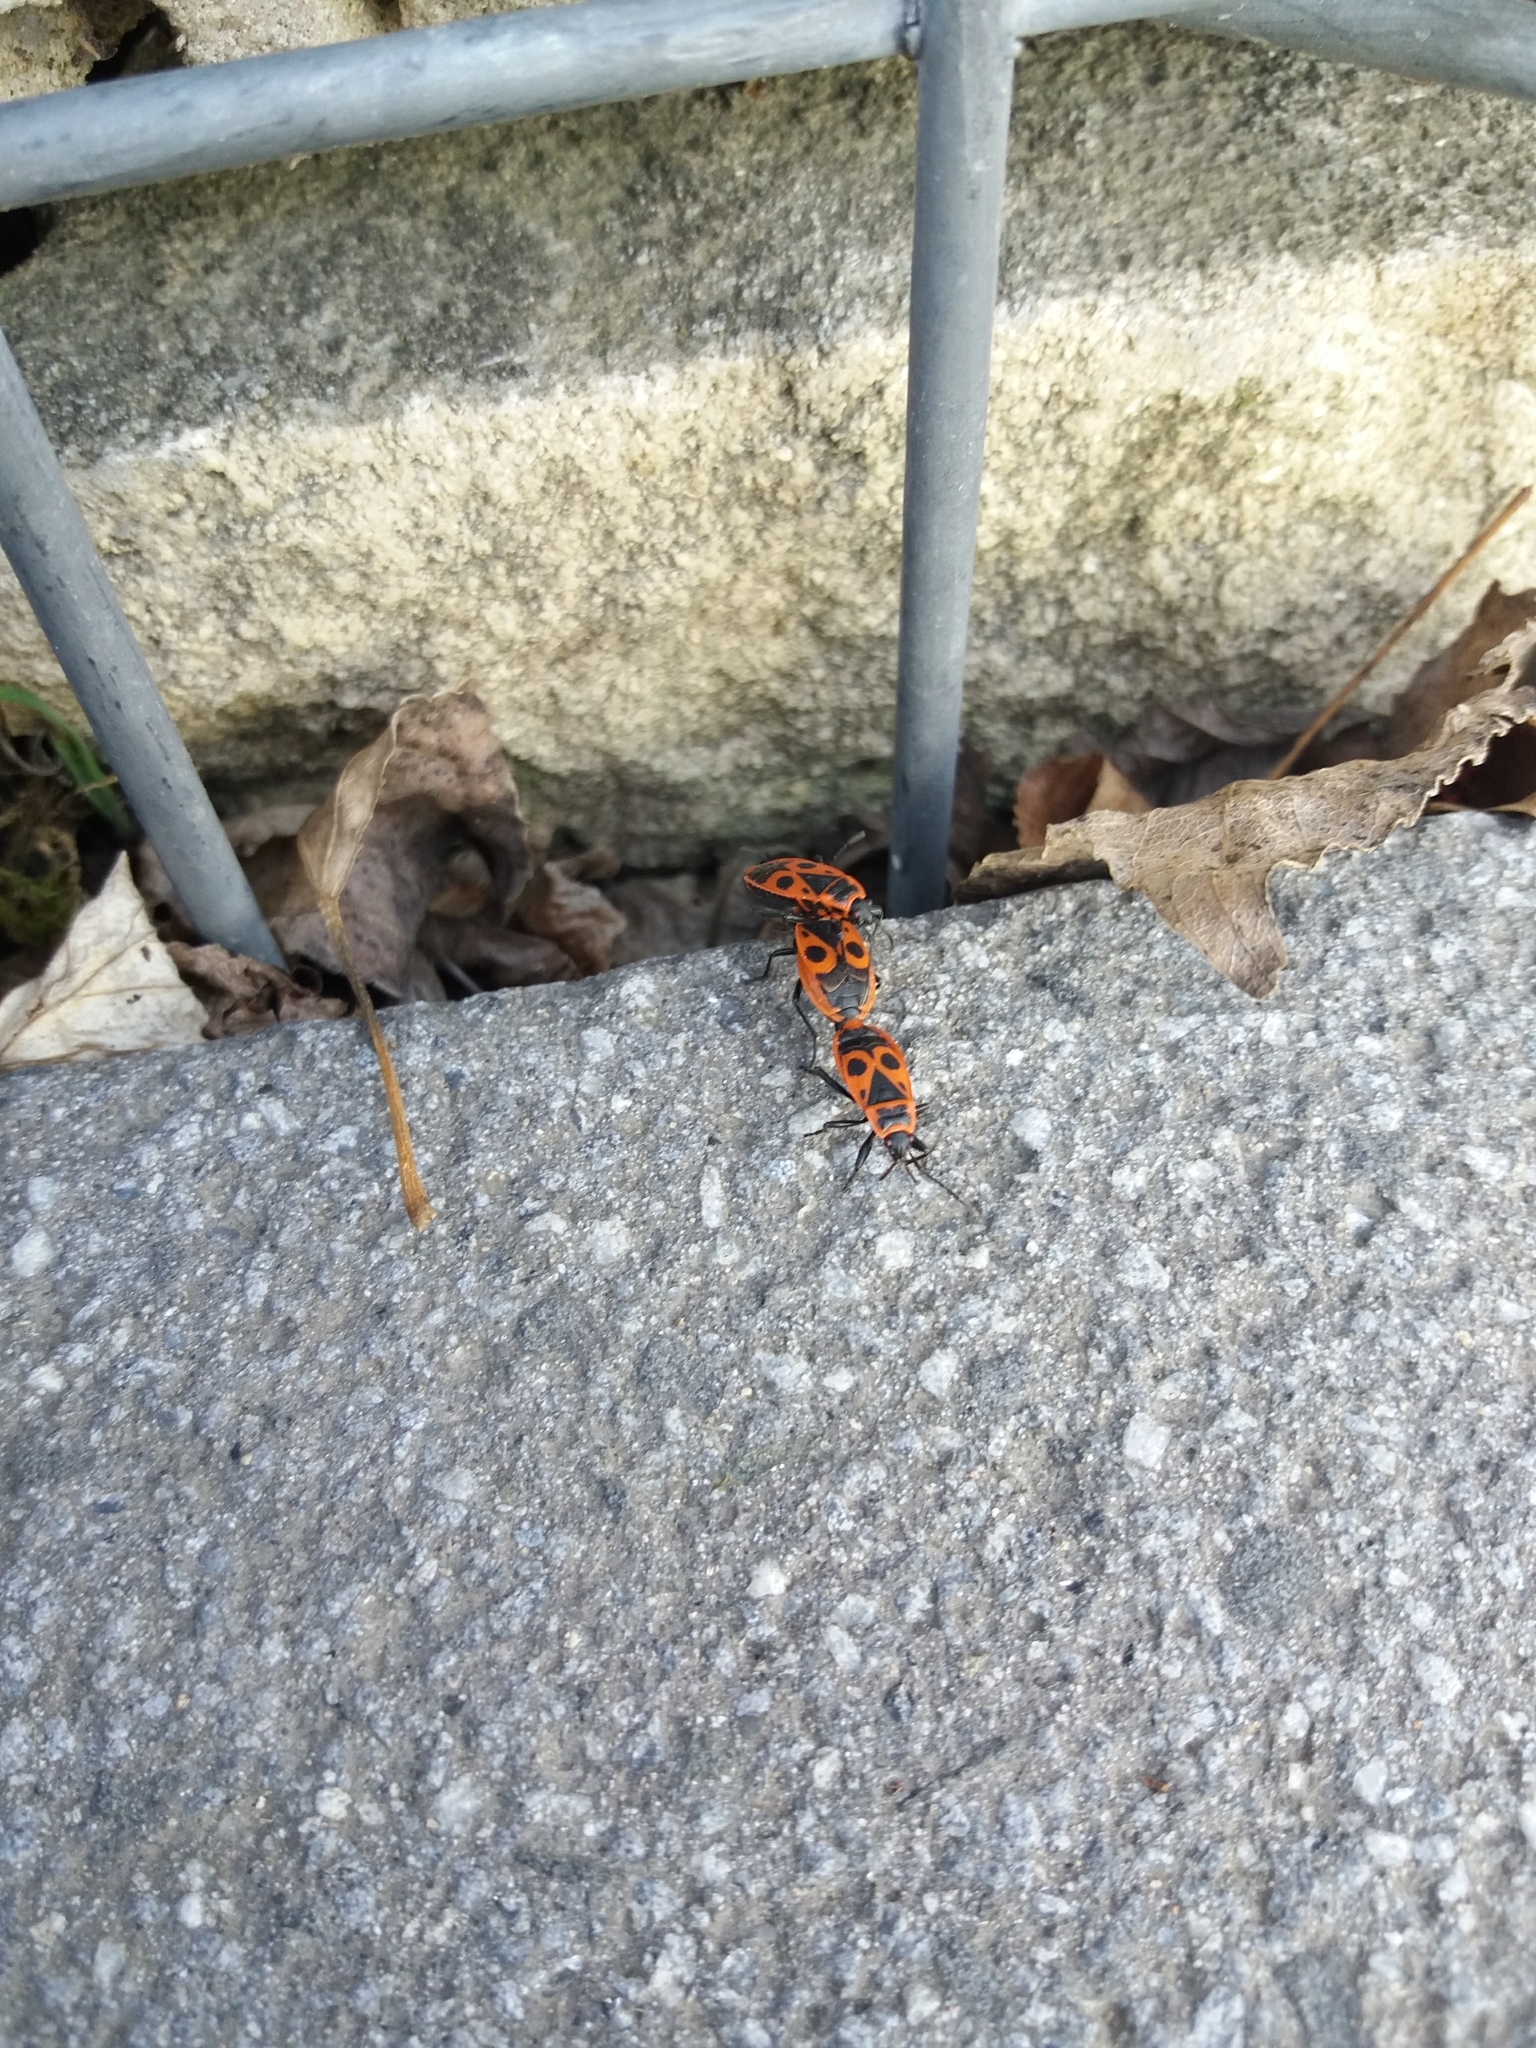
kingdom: Animalia
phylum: Arthropoda
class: Insecta
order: Hemiptera
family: Pyrrhocoridae
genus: Pyrrhocoris
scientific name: Pyrrhocoris apterus
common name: Firebug
